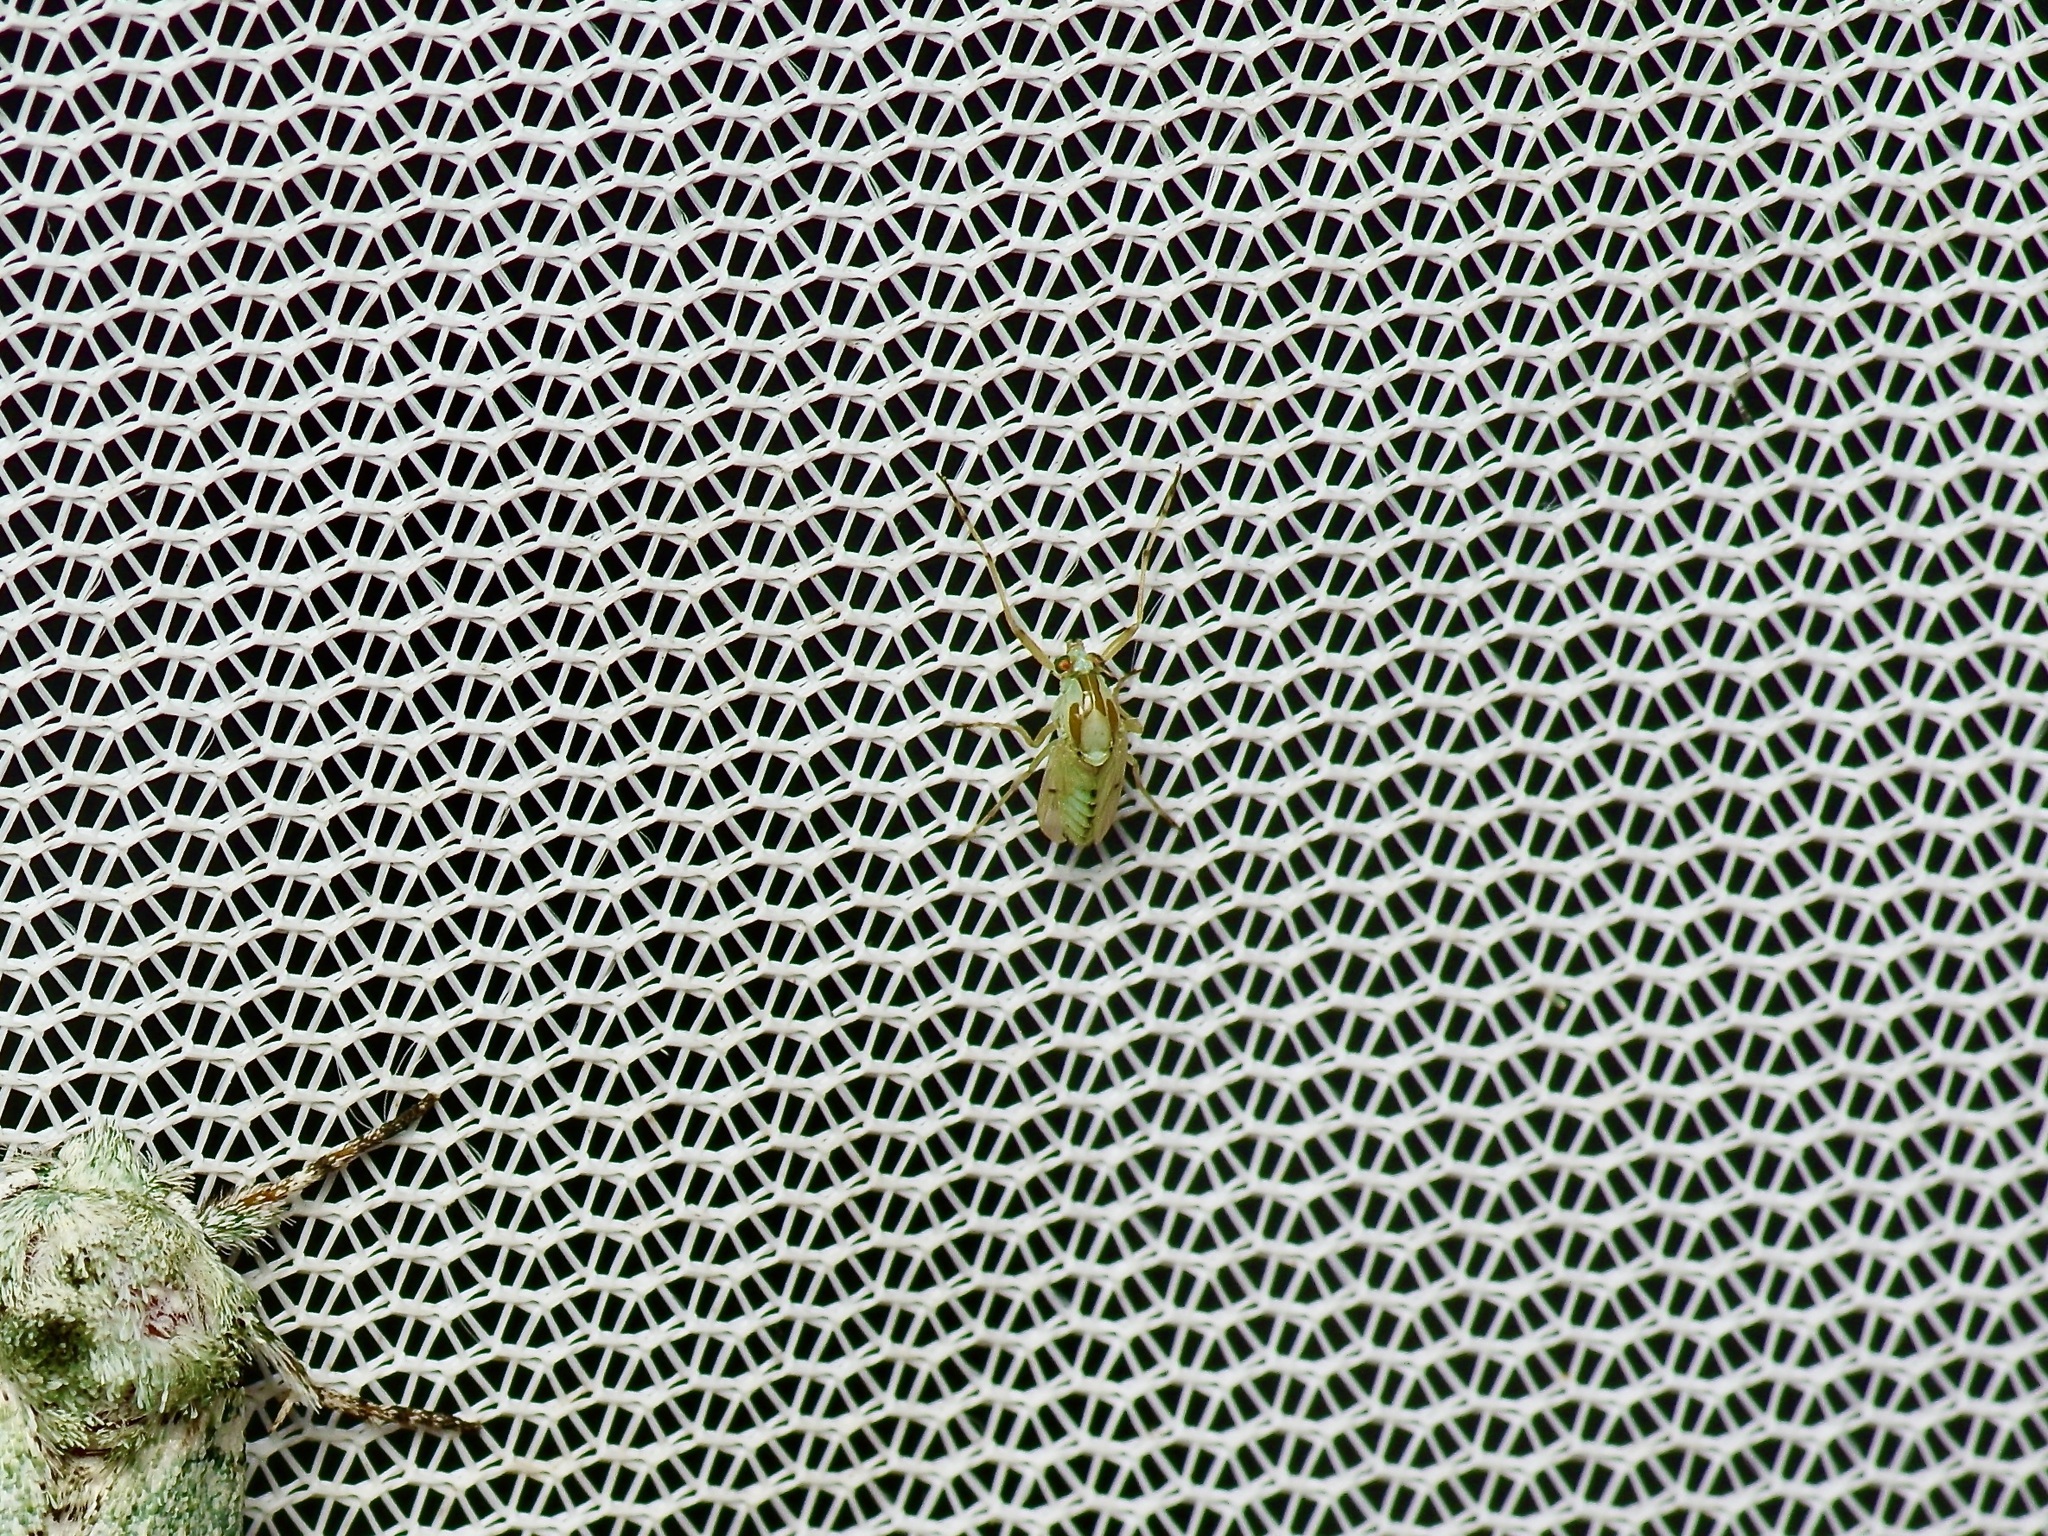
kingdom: Animalia
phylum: Arthropoda
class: Insecta
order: Diptera
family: Chironomidae
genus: Coelotanypus
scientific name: Coelotanypus concinnus
